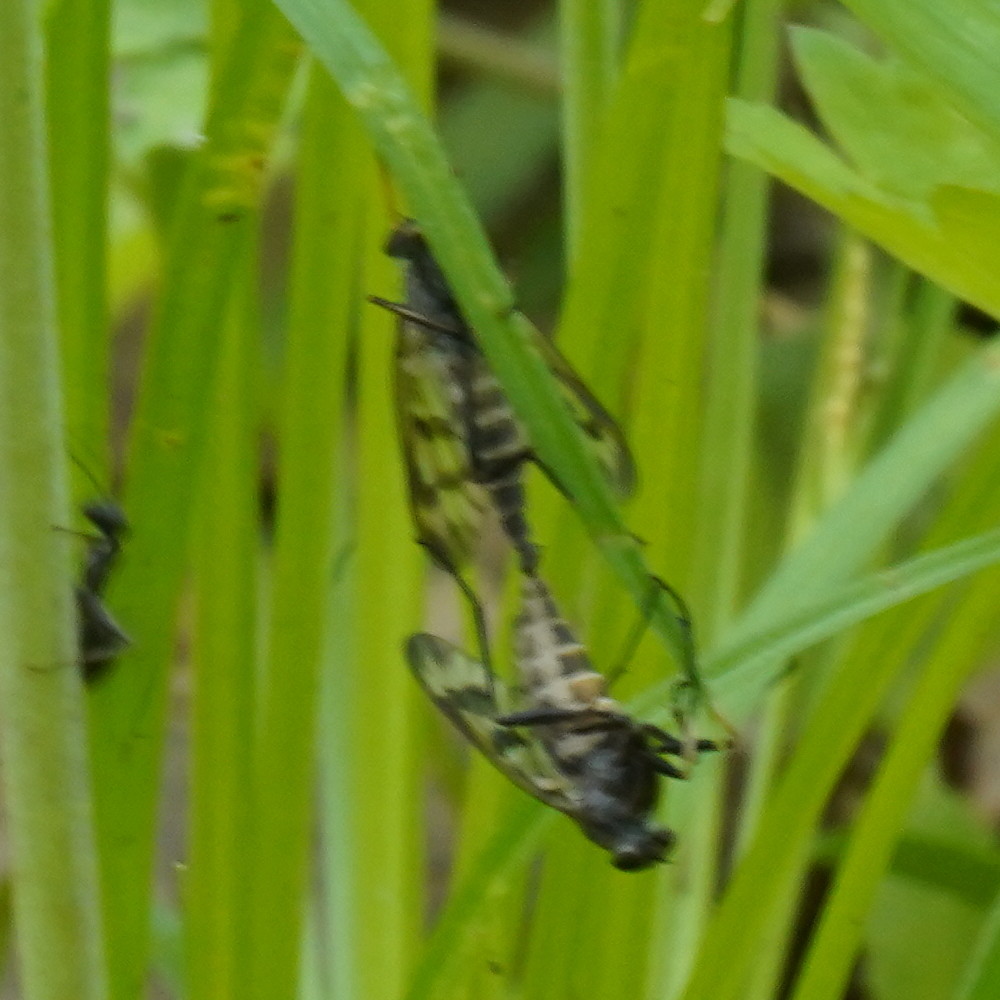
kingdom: Animalia
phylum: Arthropoda
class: Insecta
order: Diptera
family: Rhagionidae
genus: Rhagio
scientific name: Rhagio mystaceus
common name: Common snipe fly
